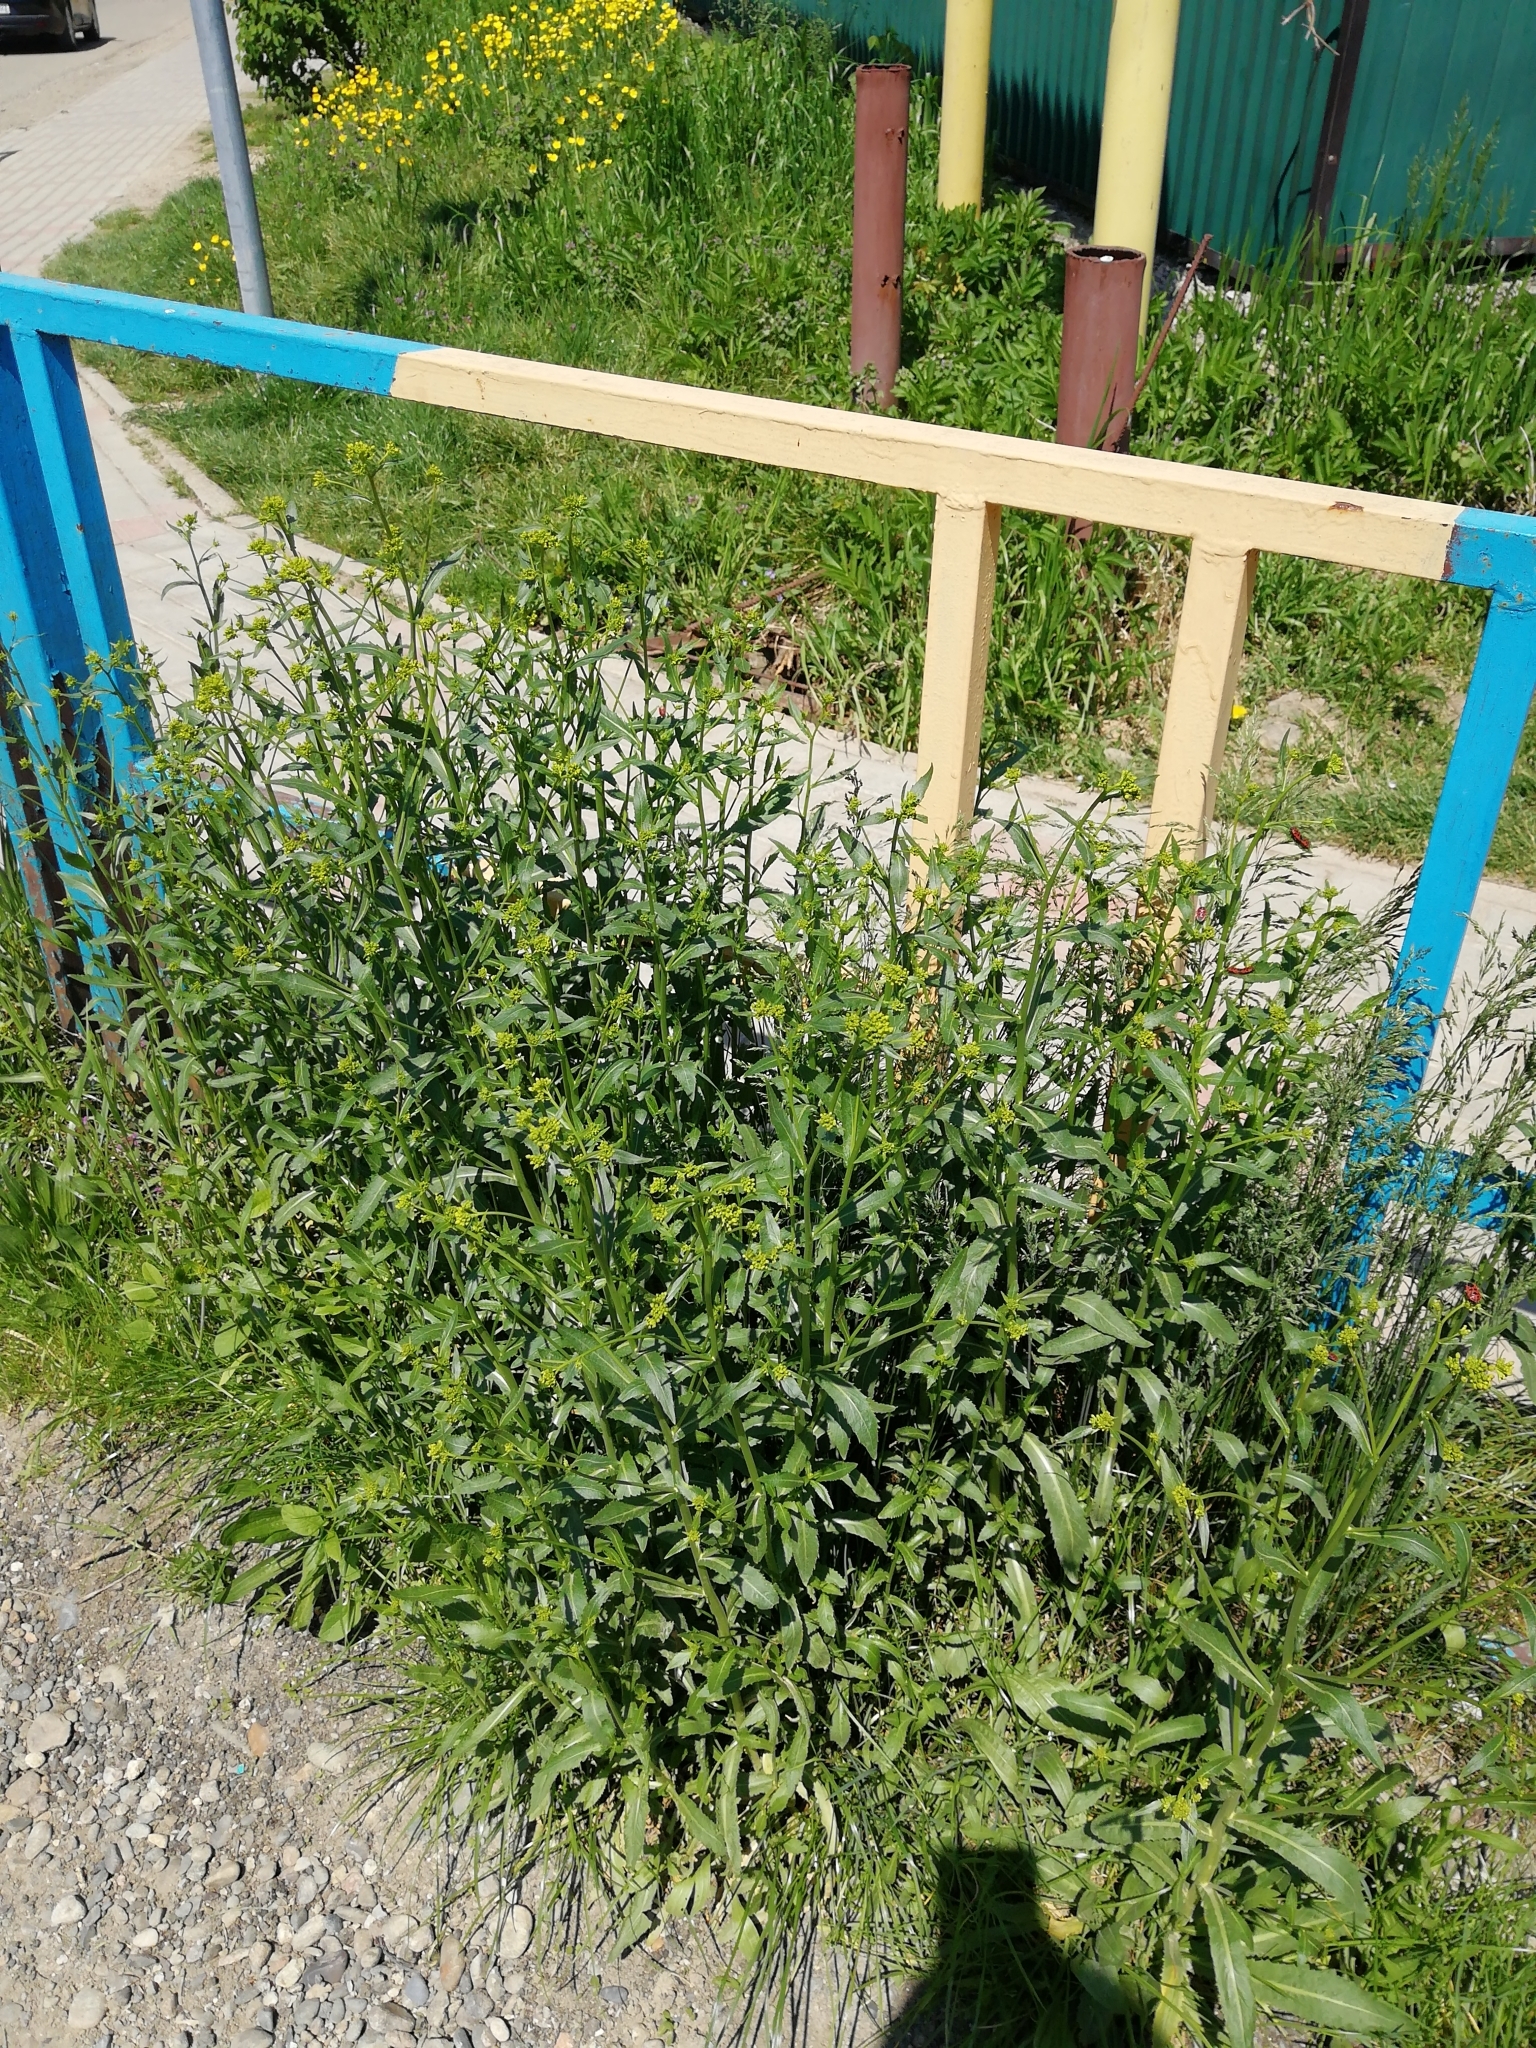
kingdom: Plantae
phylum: Tracheophyta
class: Magnoliopsida
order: Brassicales
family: Brassicaceae
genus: Rorippa
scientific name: Rorippa austriaca
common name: Austrian yellow-cress
